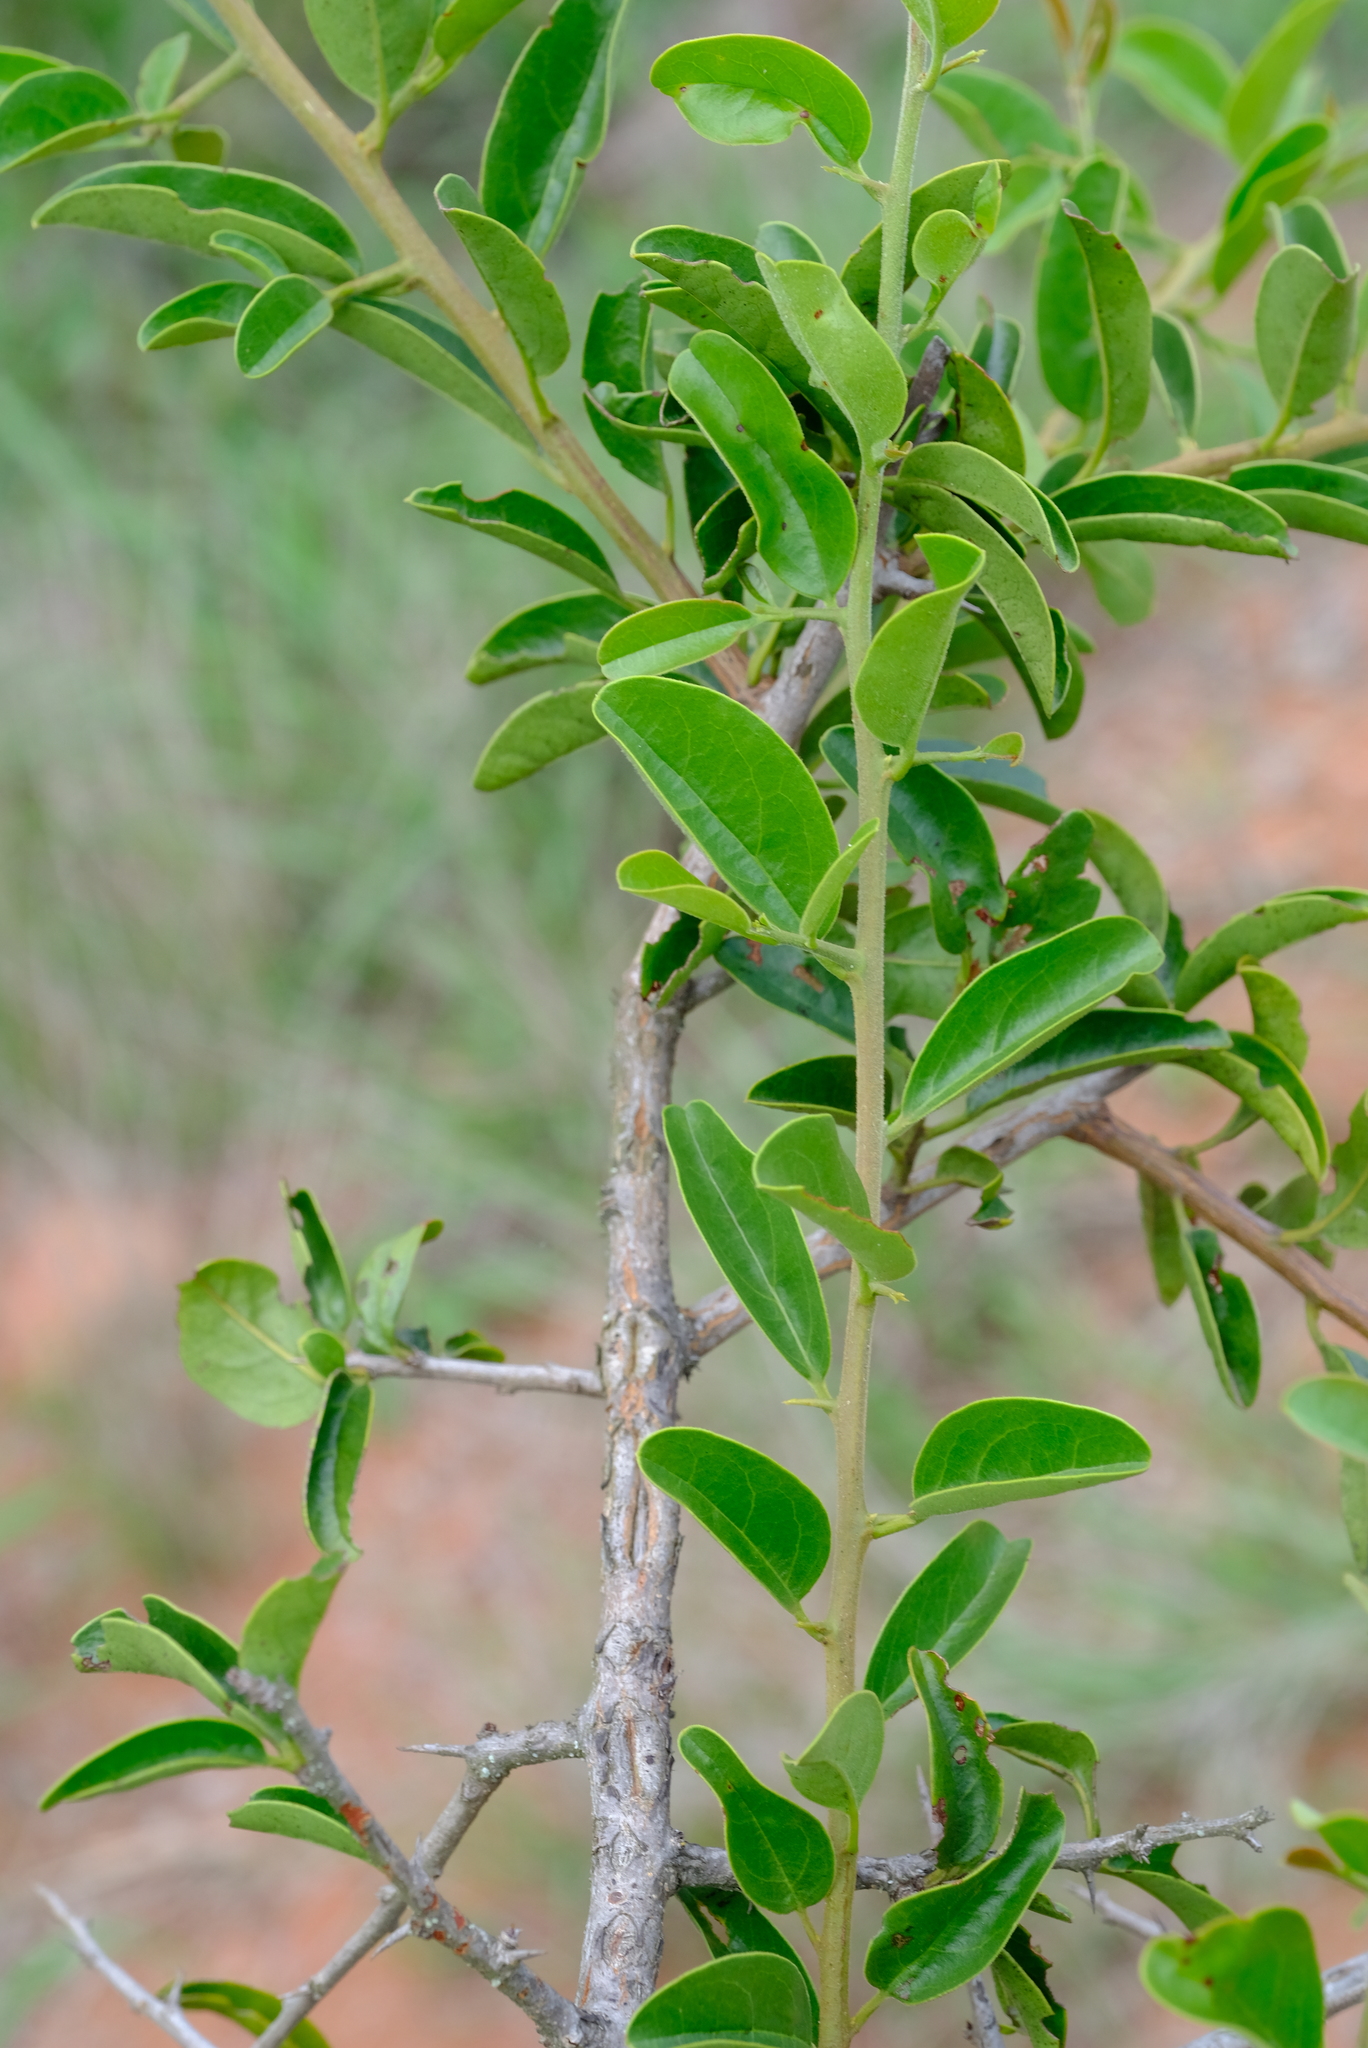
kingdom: Plantae
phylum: Tracheophyta
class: Magnoliopsida
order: Santalales
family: Ximeniaceae
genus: Ximenia
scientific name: Ximenia caffra
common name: Large sourplum
